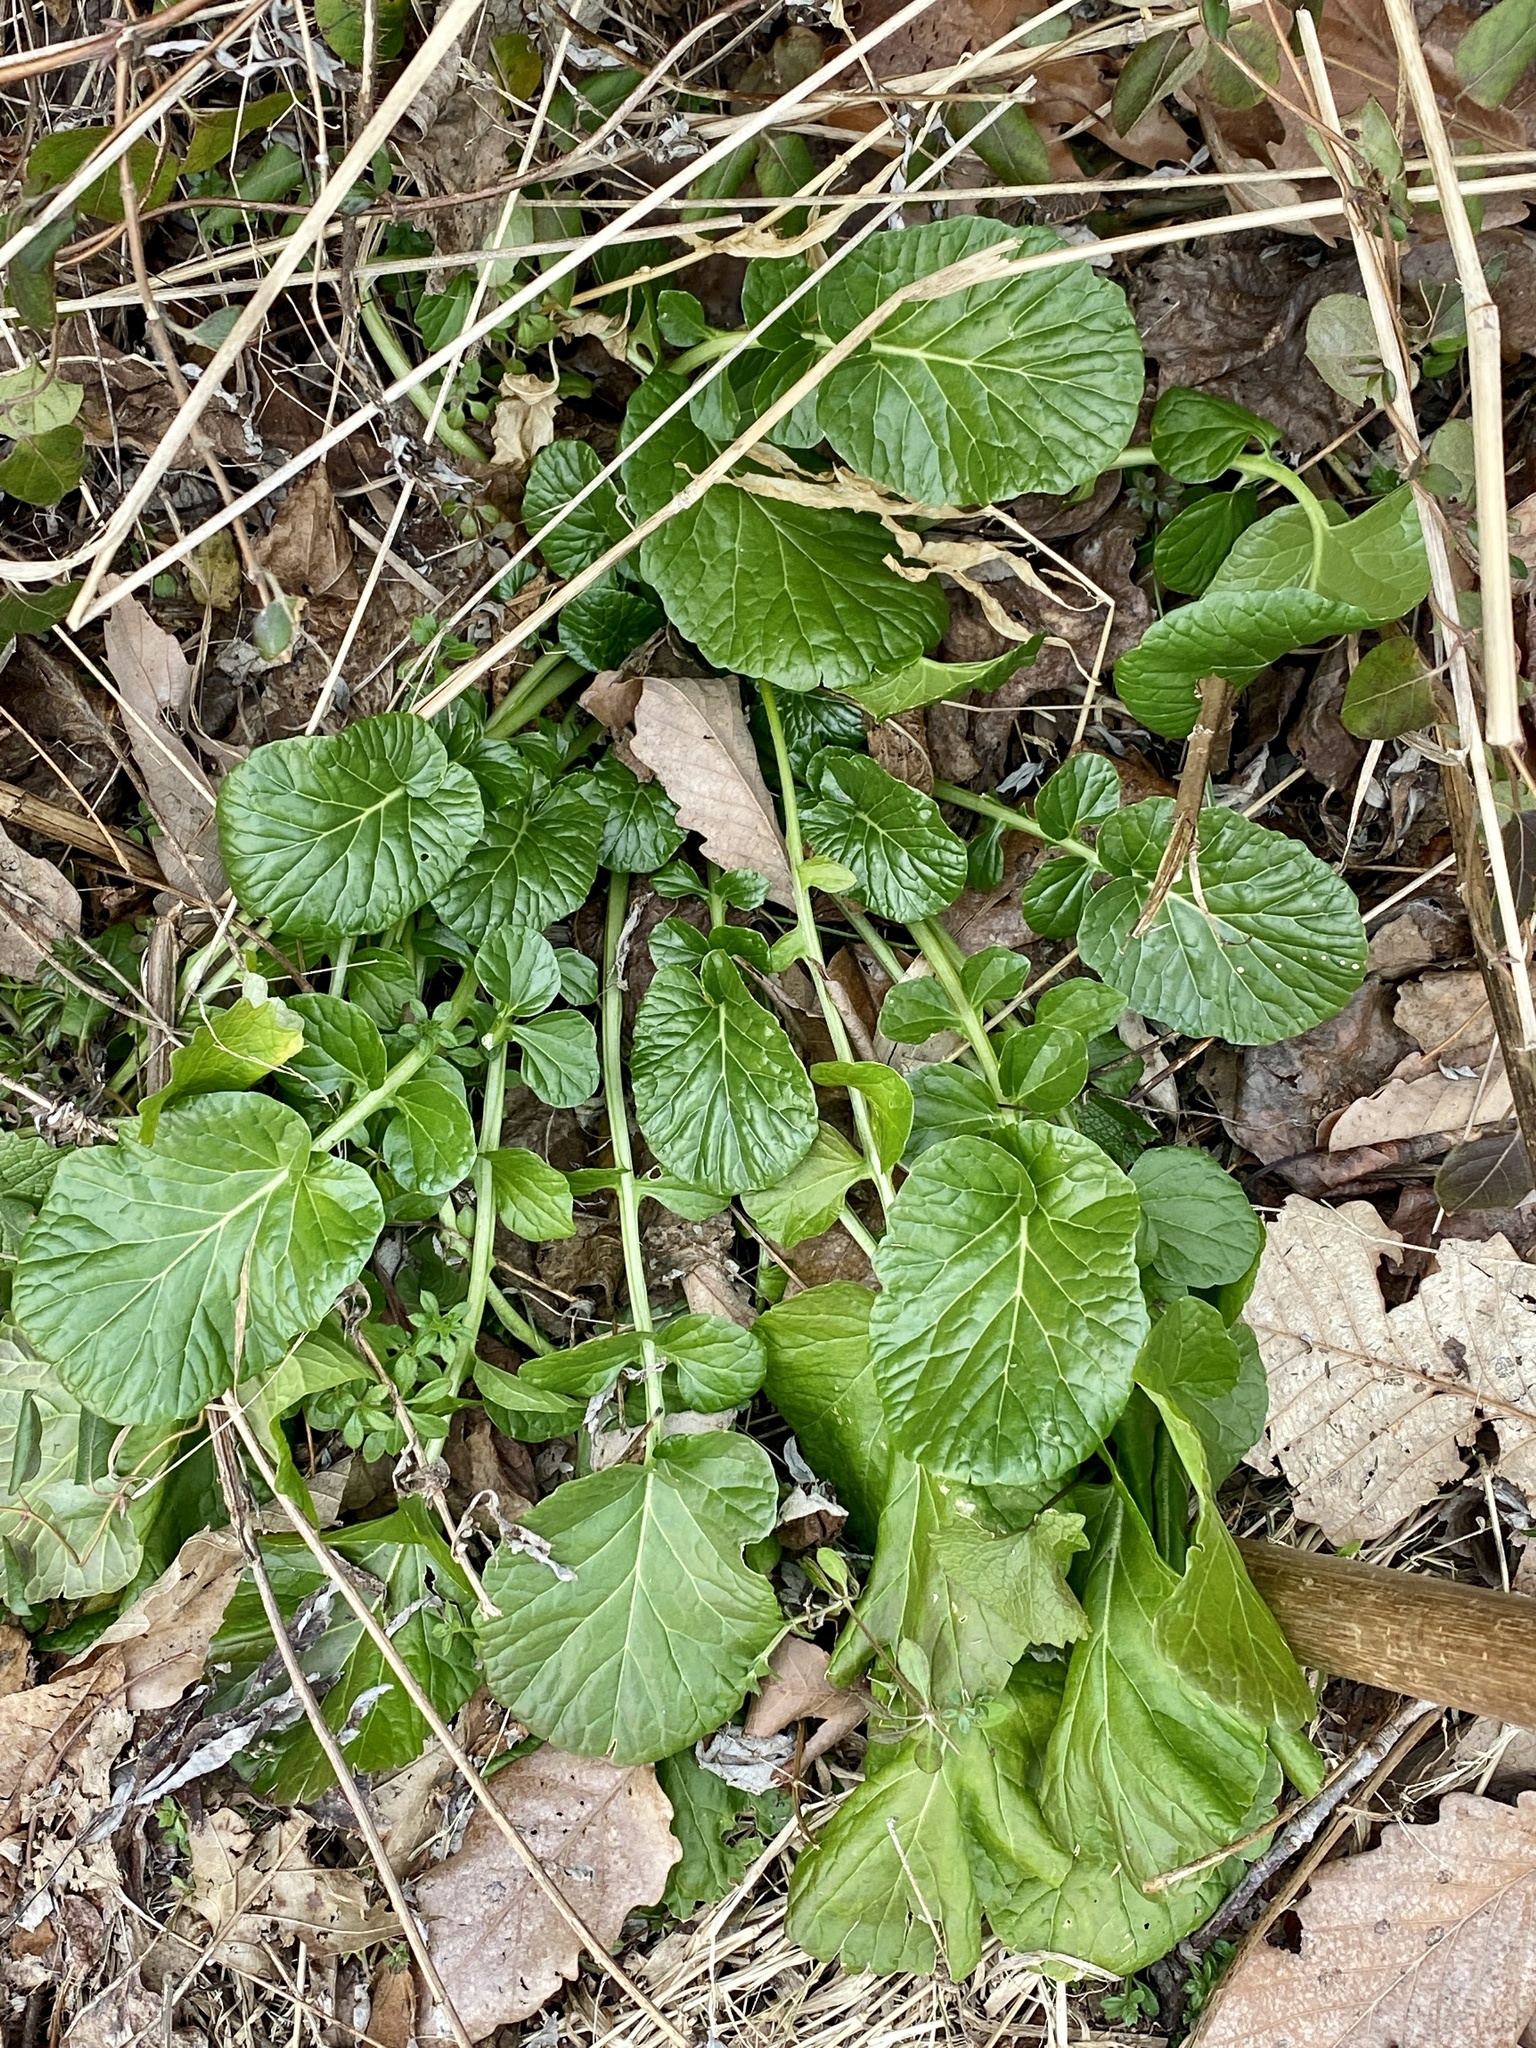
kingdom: Plantae
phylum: Tracheophyta
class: Magnoliopsida
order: Brassicales
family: Brassicaceae
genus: Barbarea
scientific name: Barbarea vulgaris
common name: Cressy-greens
